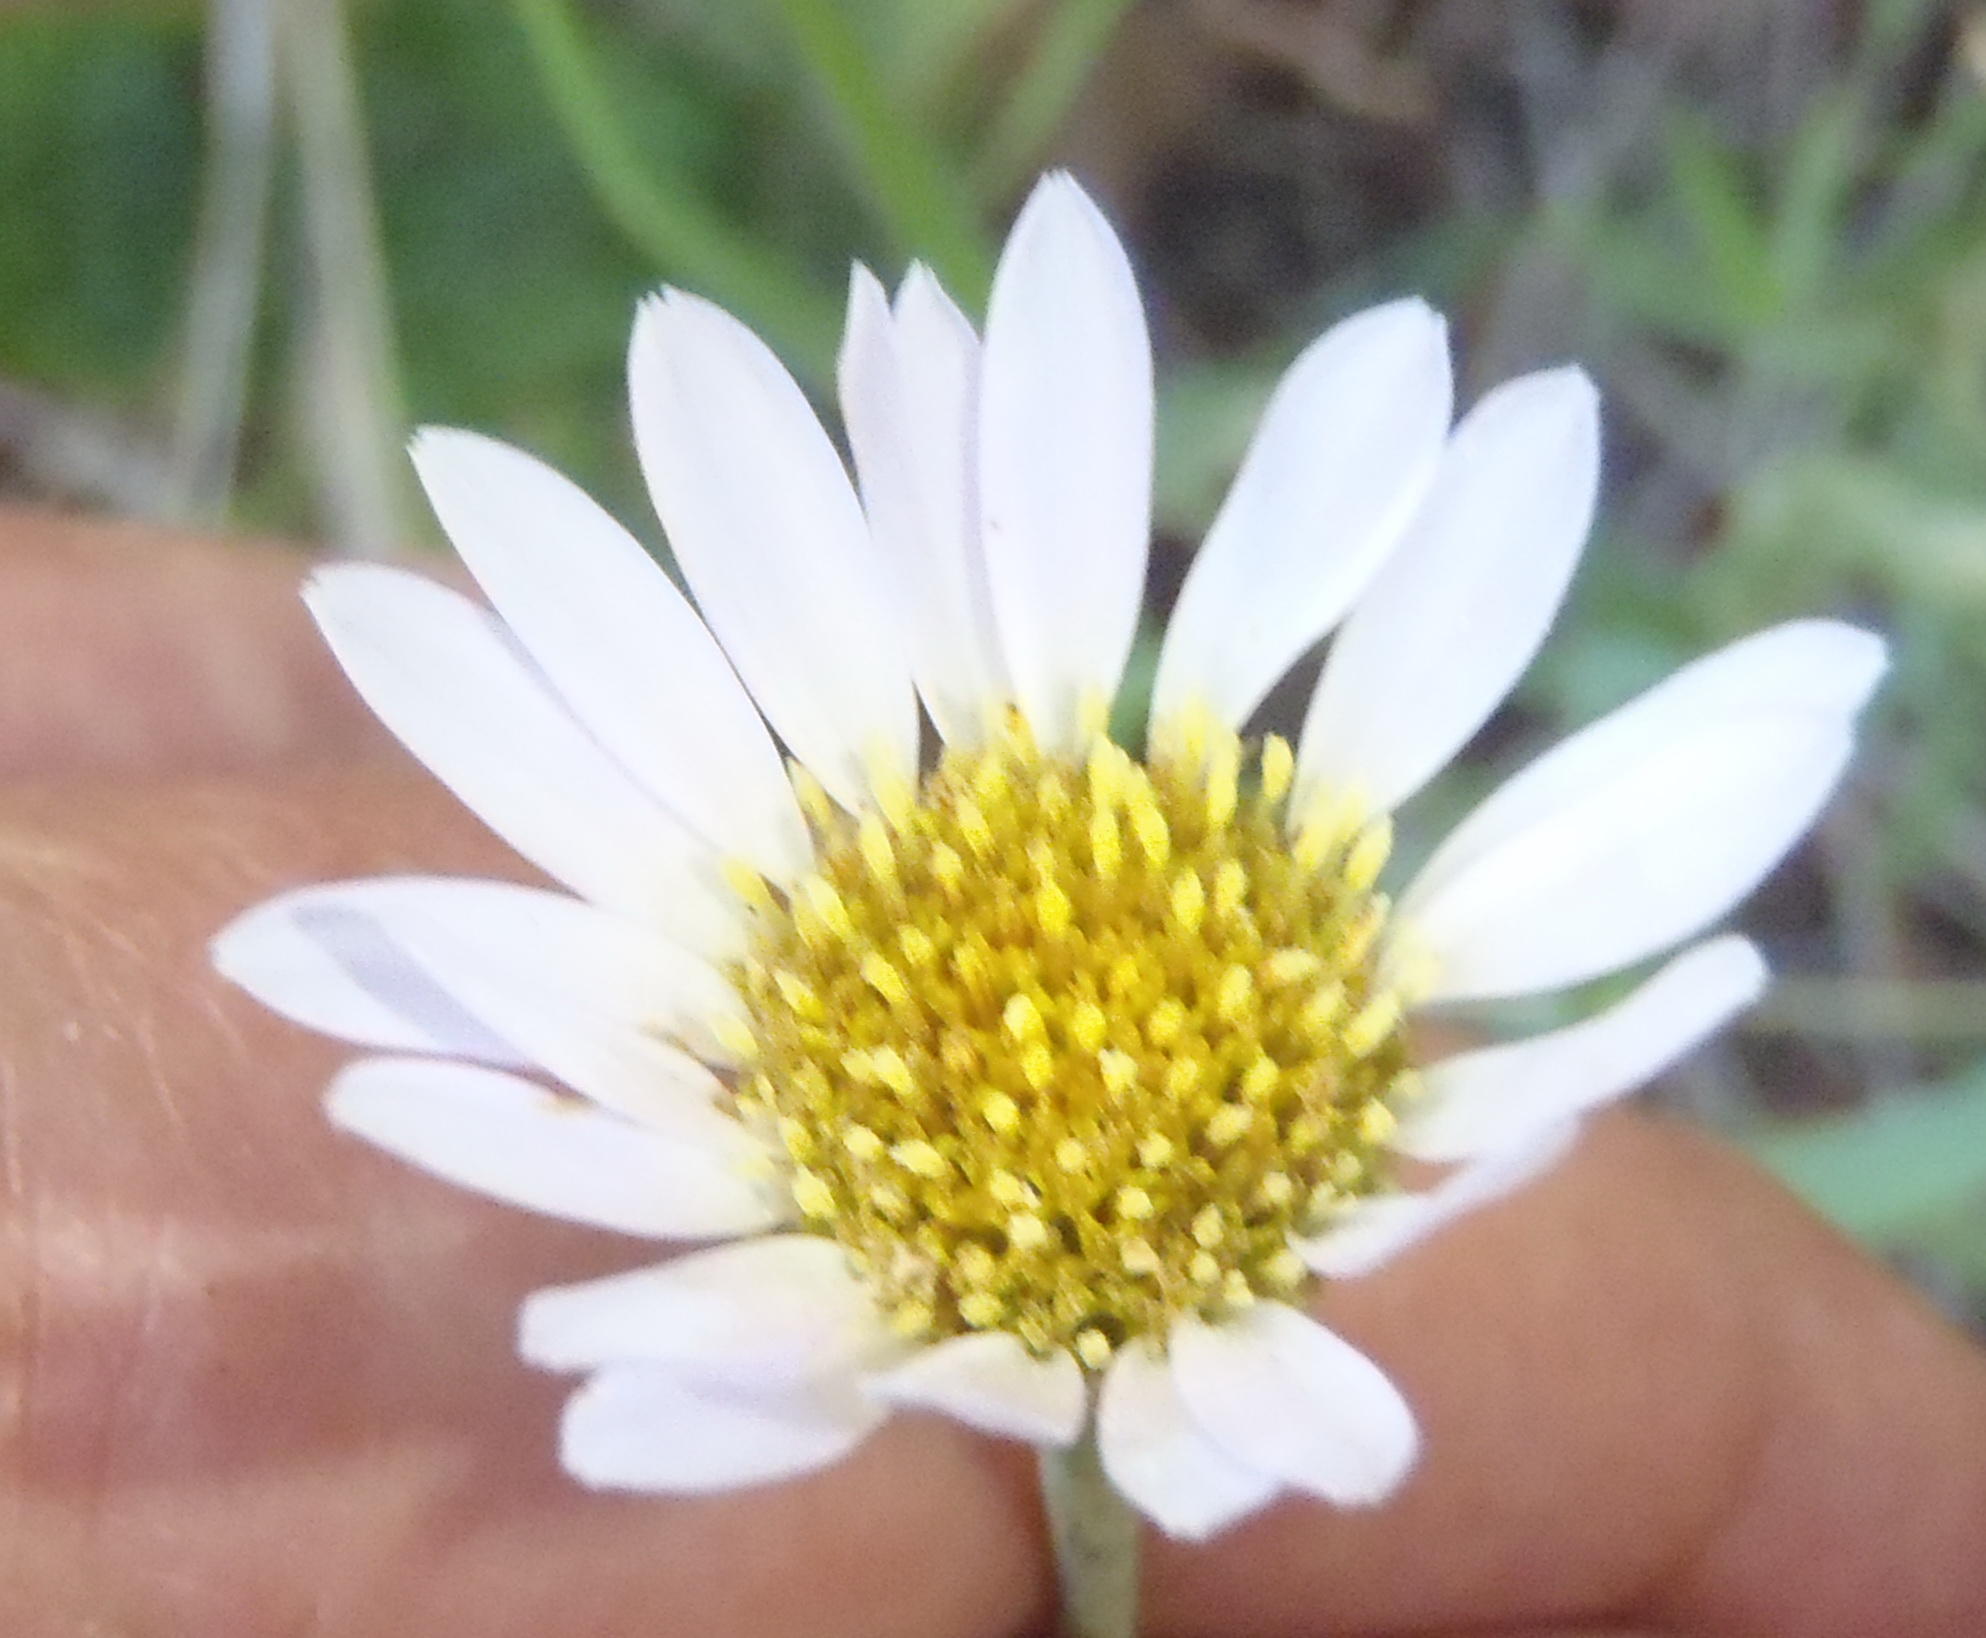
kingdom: Plantae
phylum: Tracheophyta
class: Magnoliopsida
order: Asterales
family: Asteraceae
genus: Afroaster
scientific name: Afroaster serrulatus
